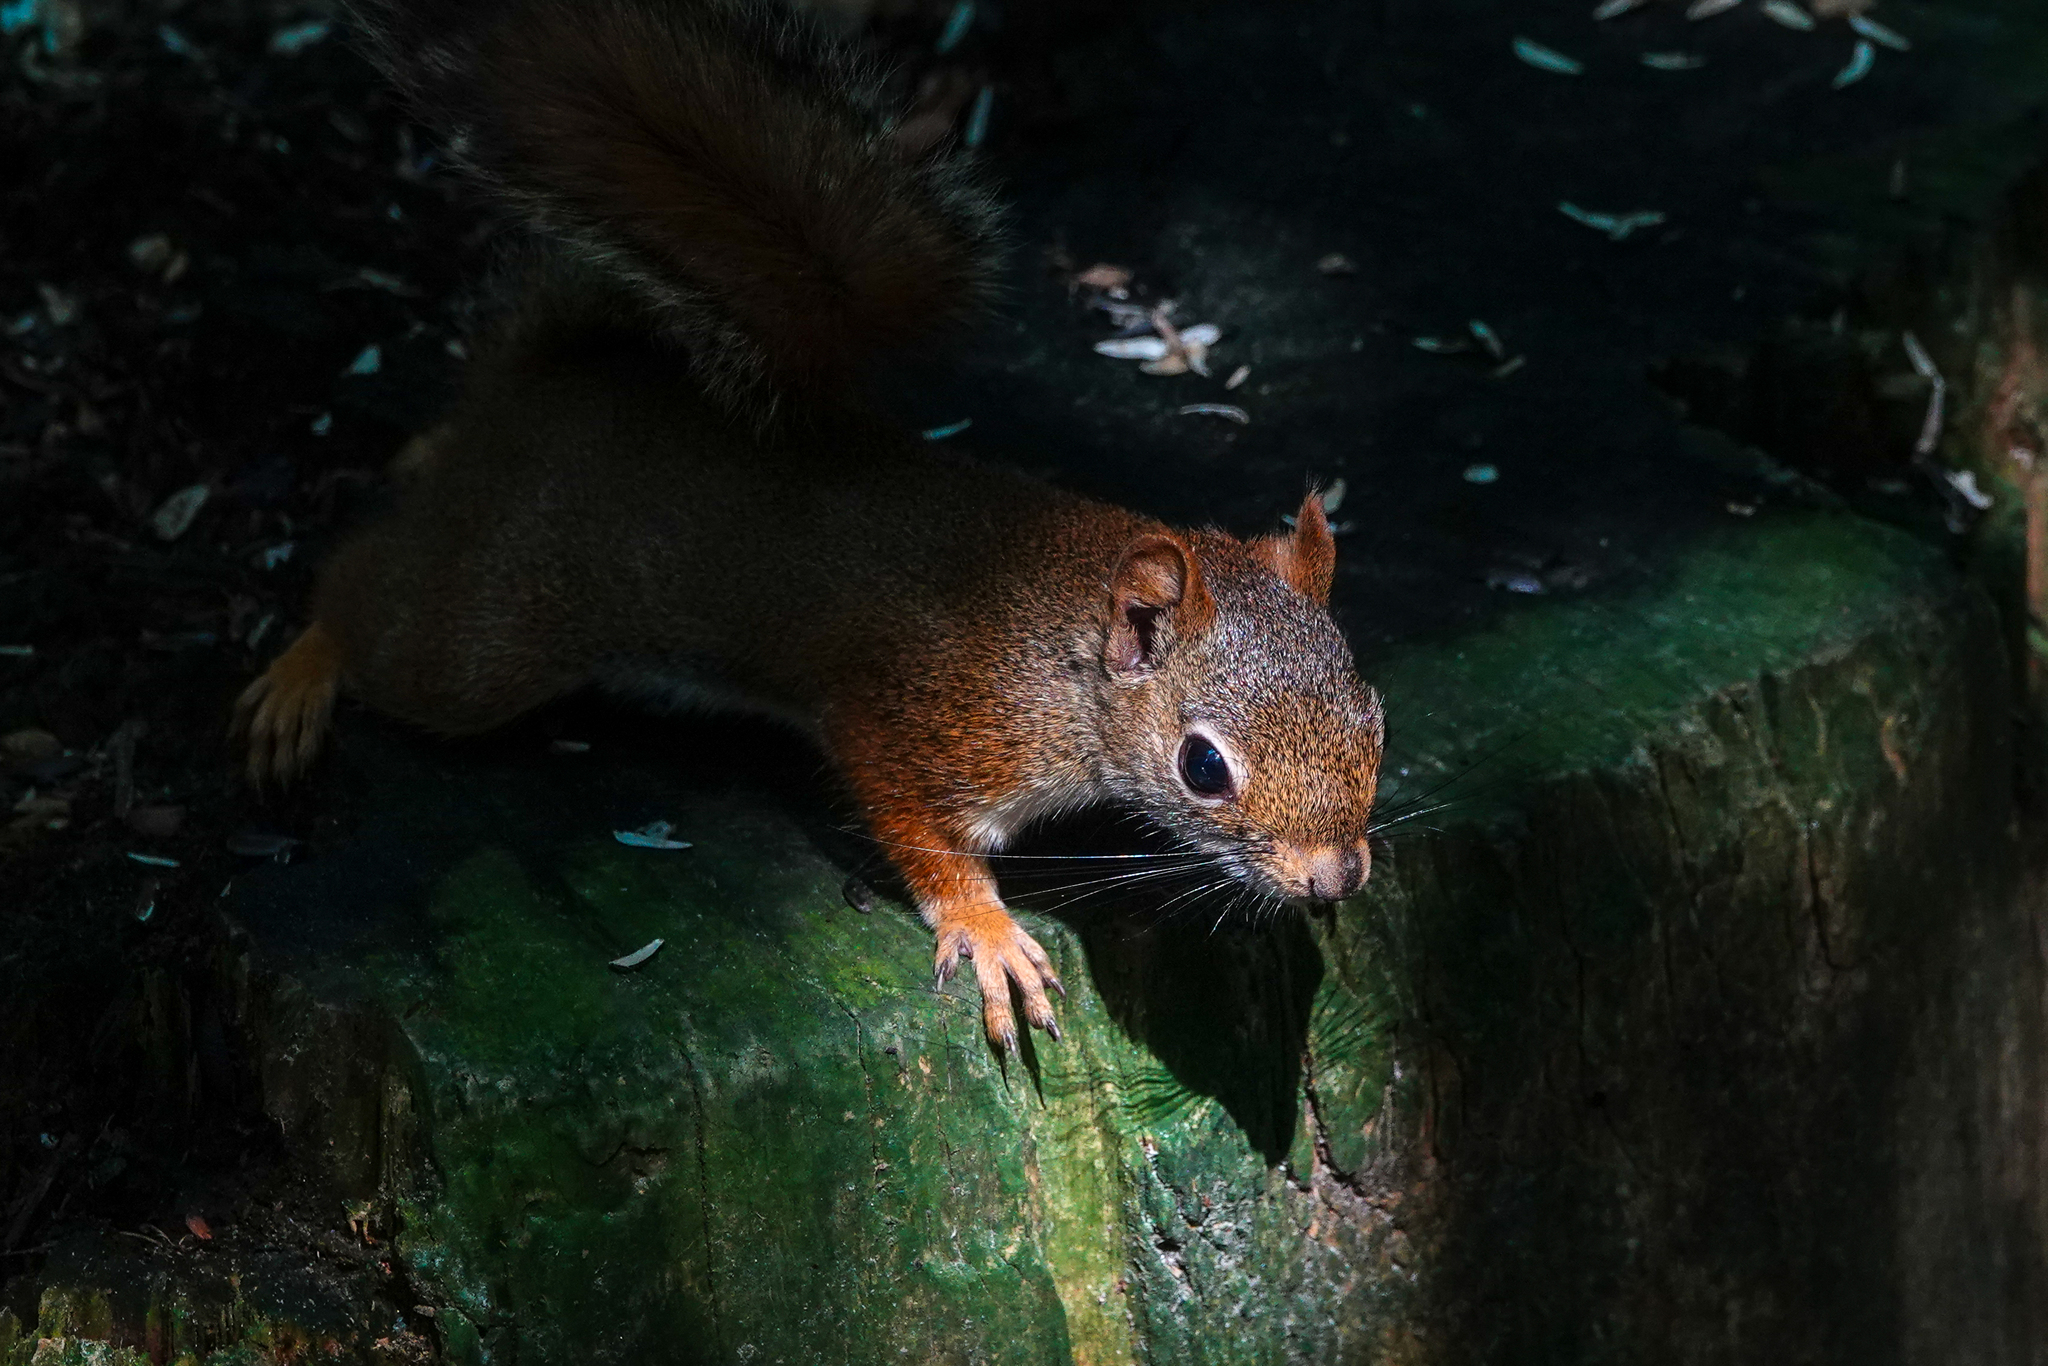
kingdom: Animalia
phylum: Chordata
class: Mammalia
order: Rodentia
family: Sciuridae
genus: Tamiasciurus
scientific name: Tamiasciurus hudsonicus
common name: Red squirrel
